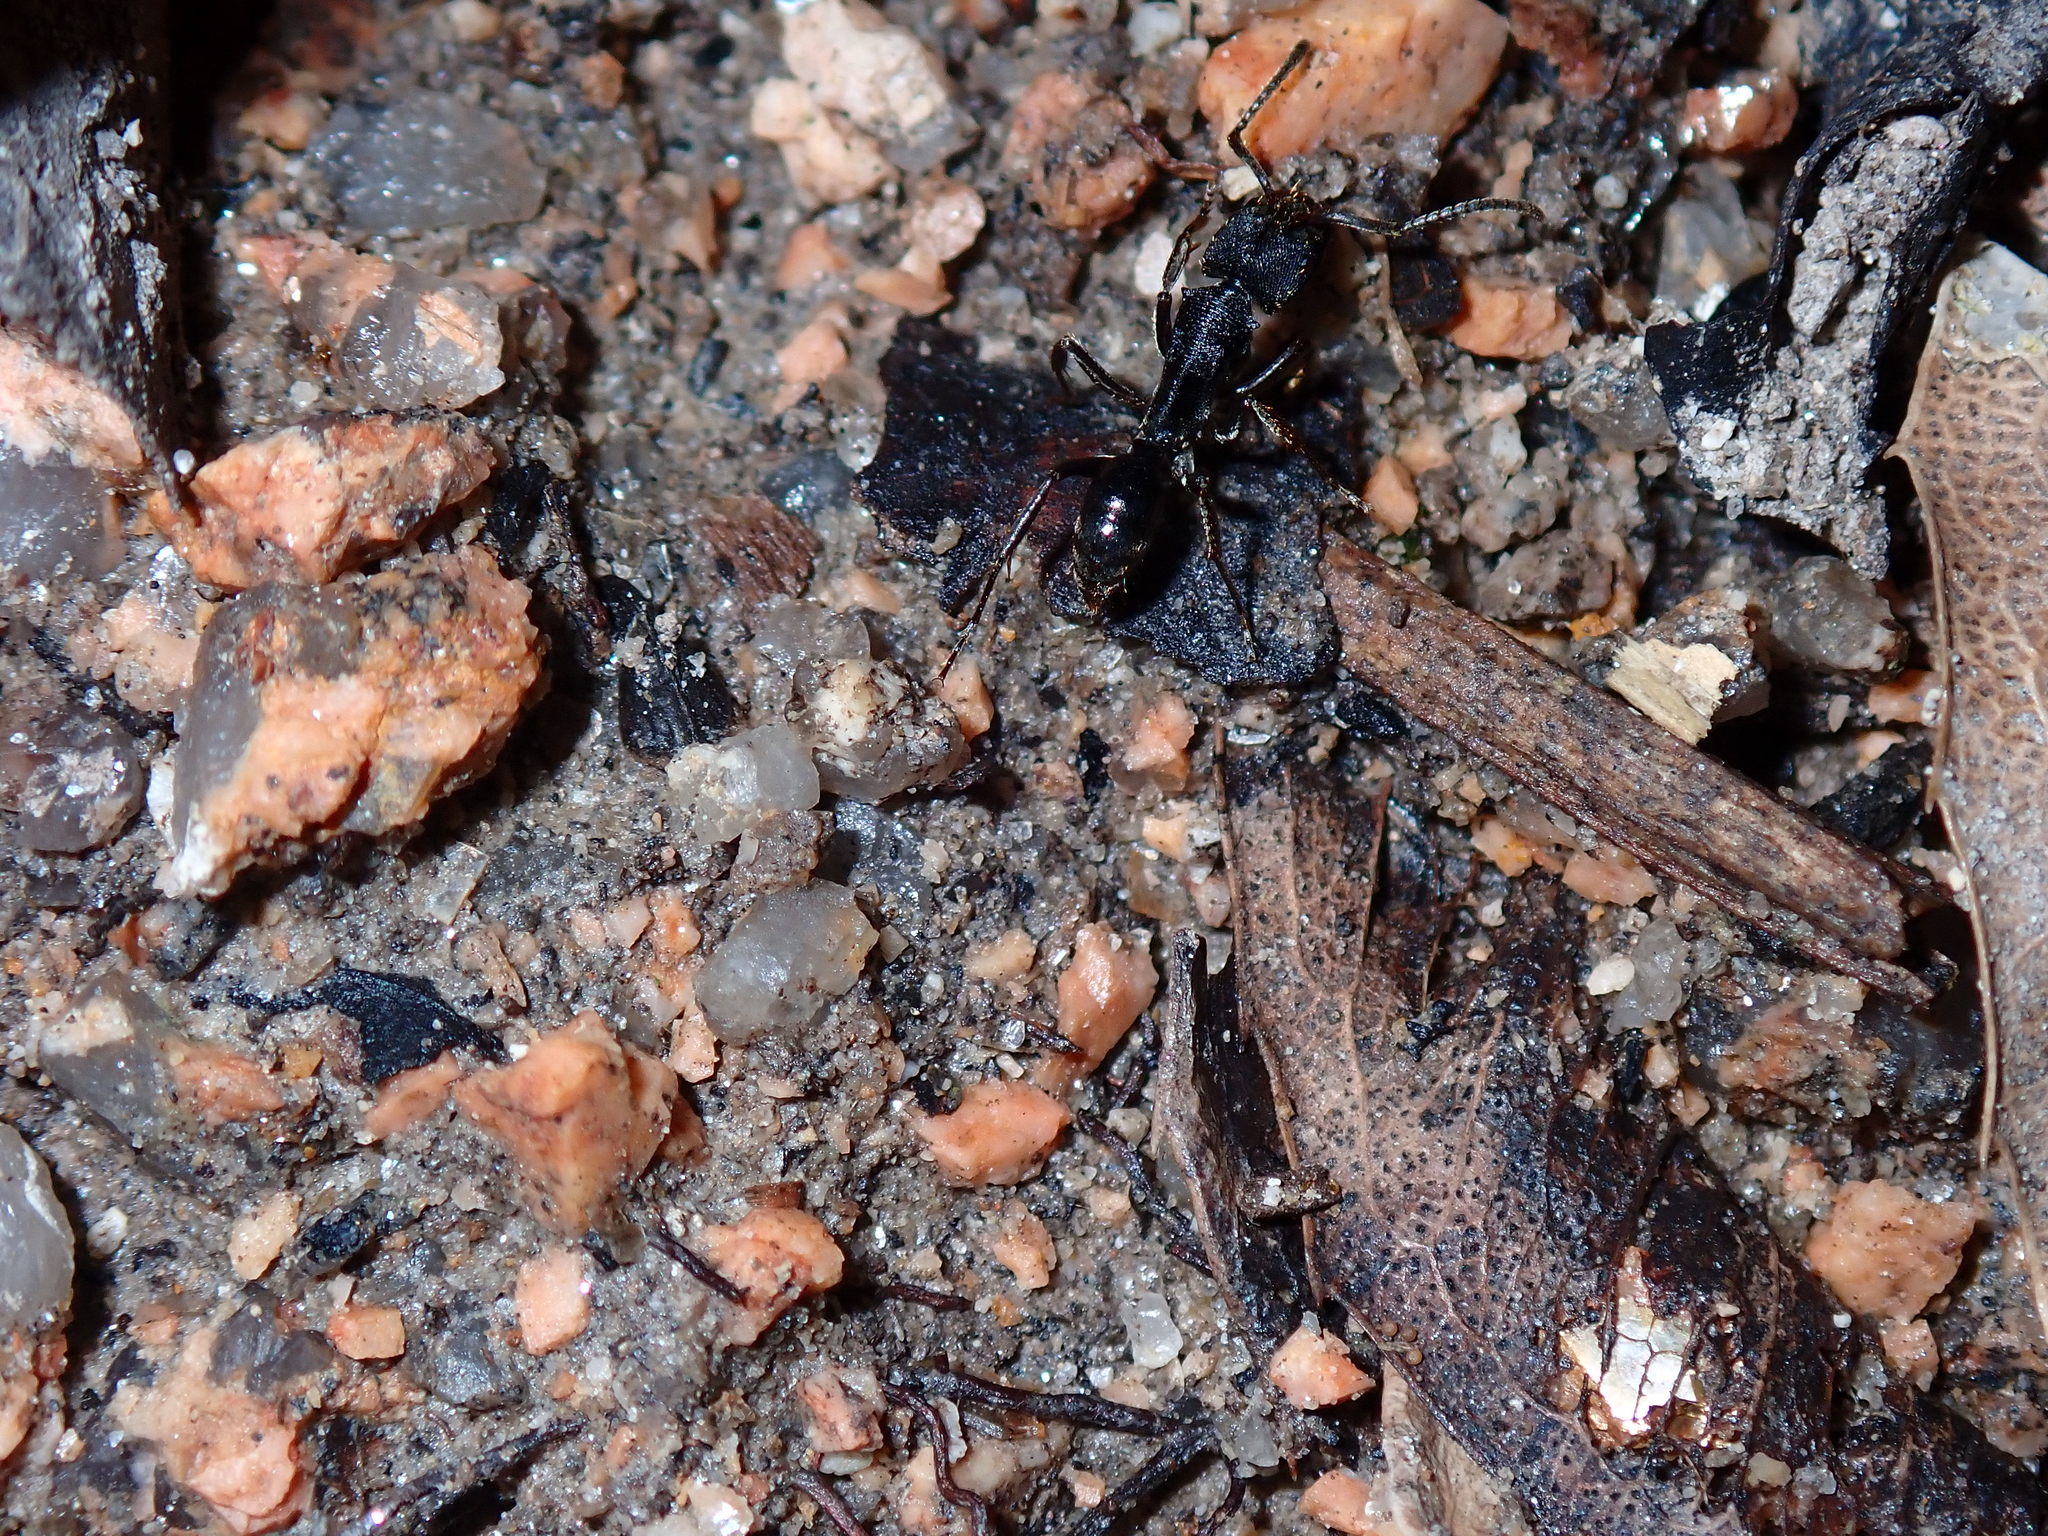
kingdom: Animalia
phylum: Arthropoda
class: Insecta
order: Hymenoptera
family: Formicidae
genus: Odontoponera
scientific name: Odontoponera denticulata
